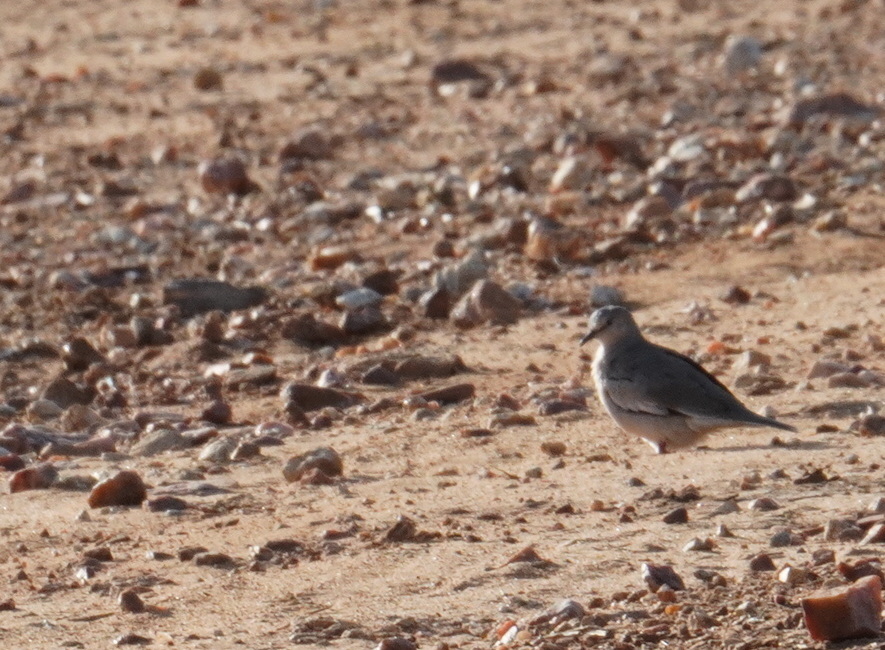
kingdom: Animalia
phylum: Chordata
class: Aves
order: Columbiformes
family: Columbidae
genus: Columbina
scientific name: Columbina picui
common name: Picui ground dove
